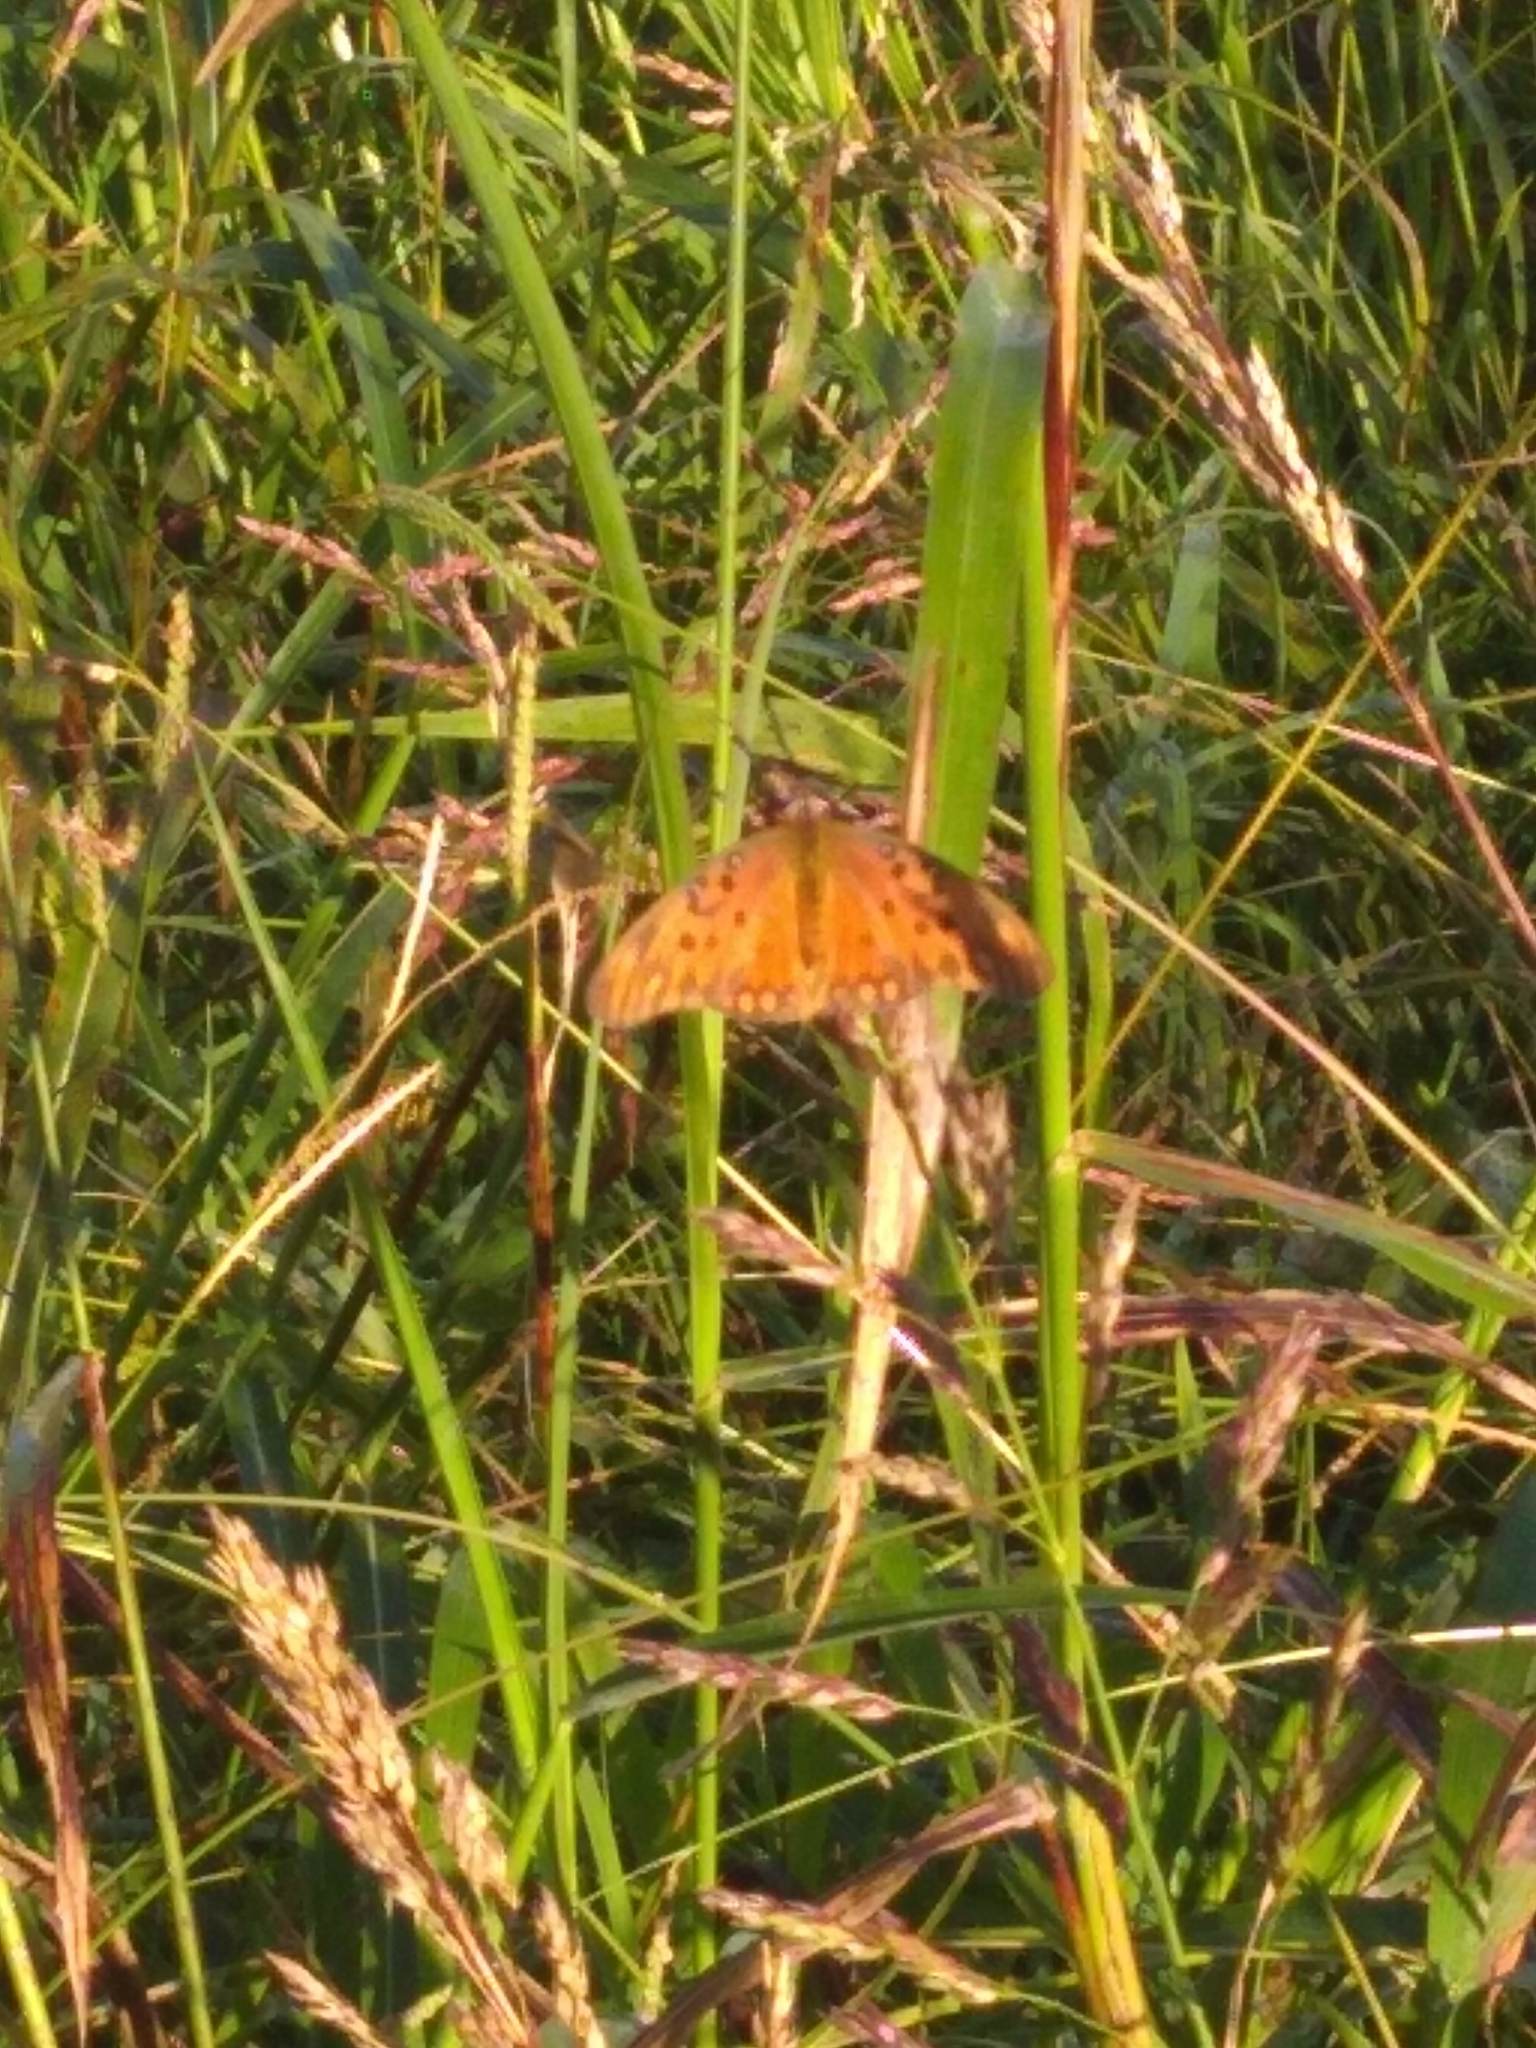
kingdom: Animalia
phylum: Arthropoda
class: Insecta
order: Lepidoptera
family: Nymphalidae
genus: Dione
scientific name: Dione vanillae
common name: Gulf fritillary
